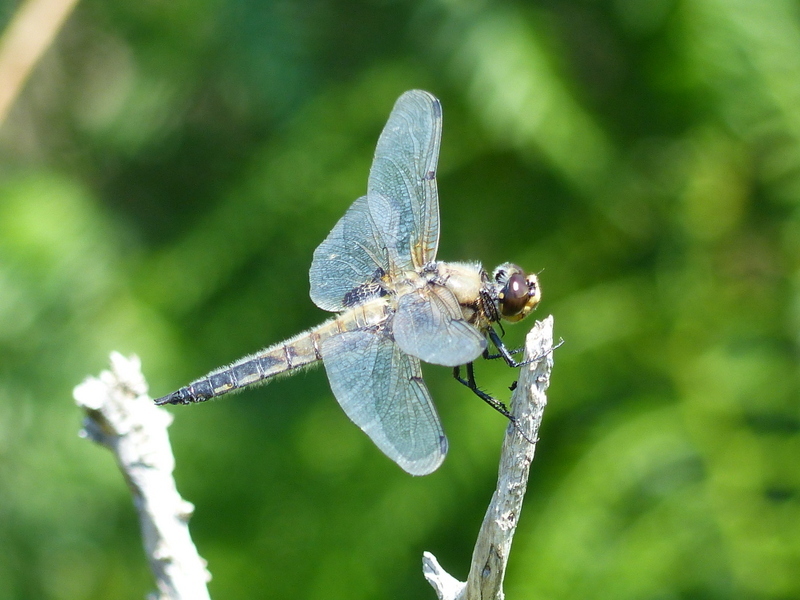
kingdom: Animalia
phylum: Arthropoda
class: Insecta
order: Odonata
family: Libellulidae
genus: Libellula
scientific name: Libellula quadrimaculata
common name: Four-spotted chaser
